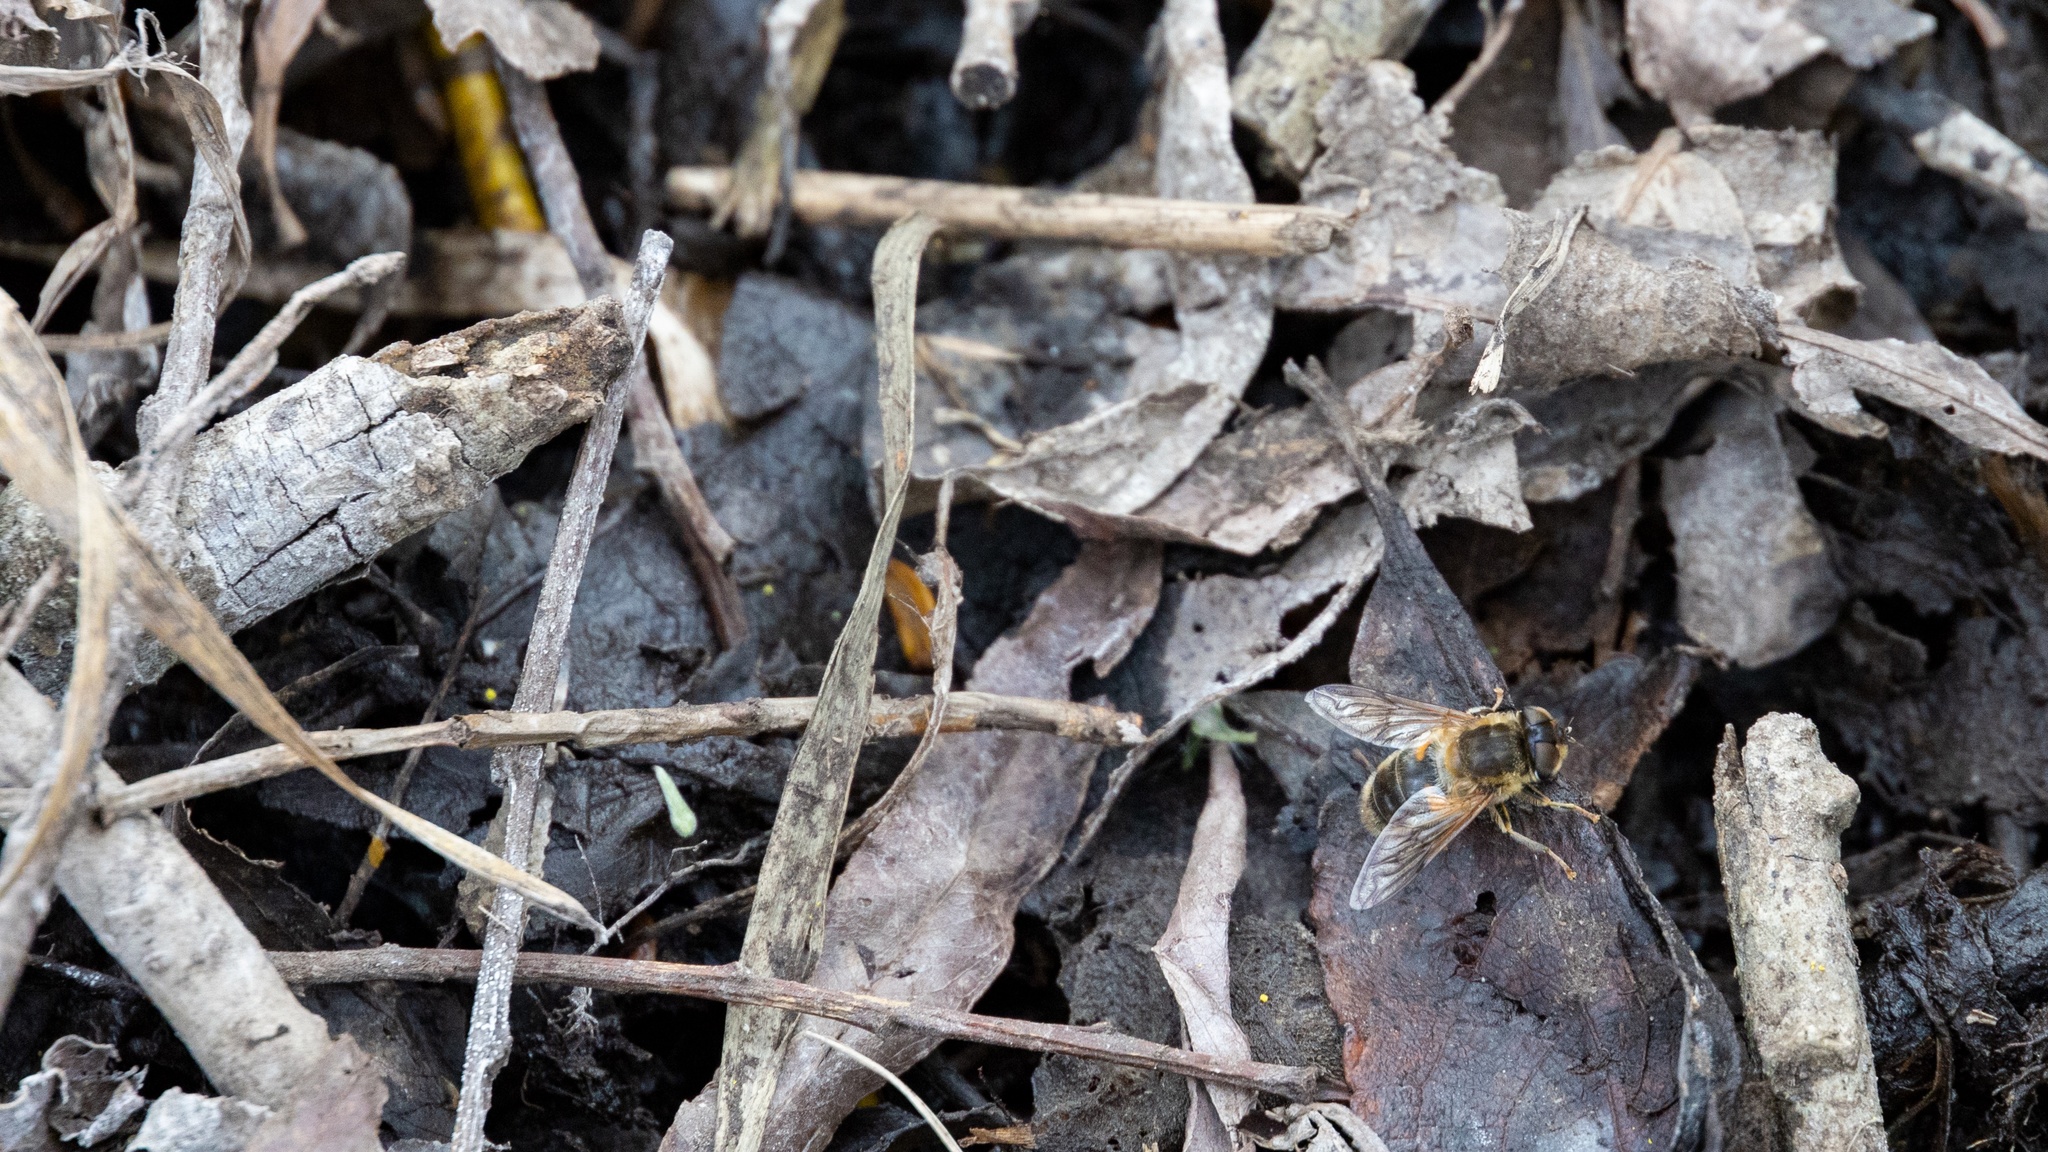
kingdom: Animalia
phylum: Arthropoda
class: Insecta
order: Diptera
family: Syrphidae
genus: Eristalis
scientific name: Eristalis pertinax
